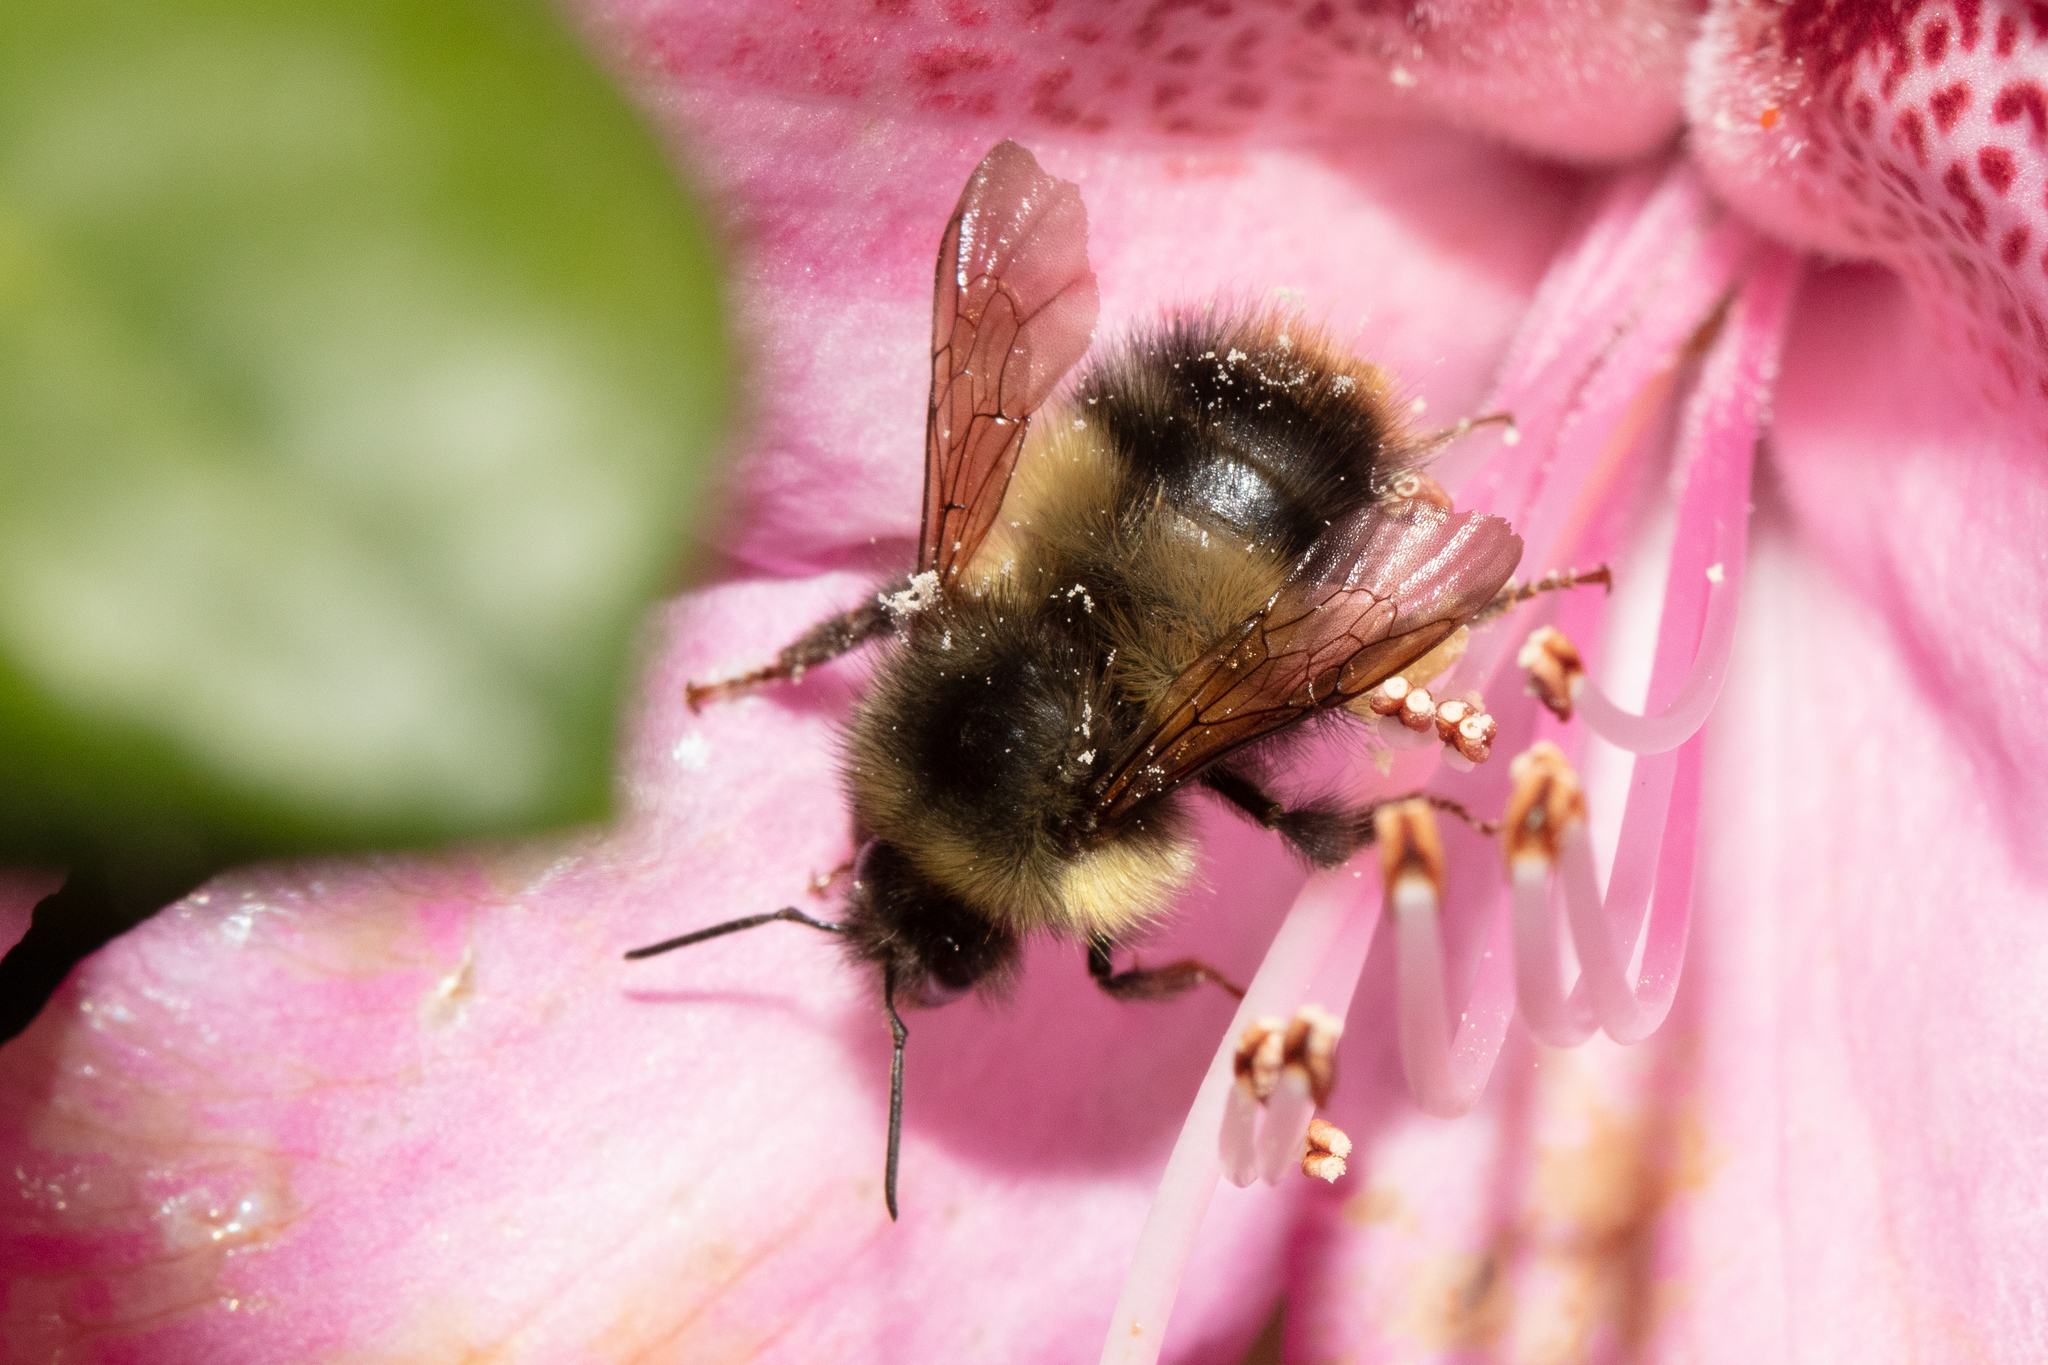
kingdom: Animalia
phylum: Arthropoda
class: Insecta
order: Hymenoptera
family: Apidae
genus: Bombus
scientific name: Bombus sitkensis
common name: Sitka bumble bee
